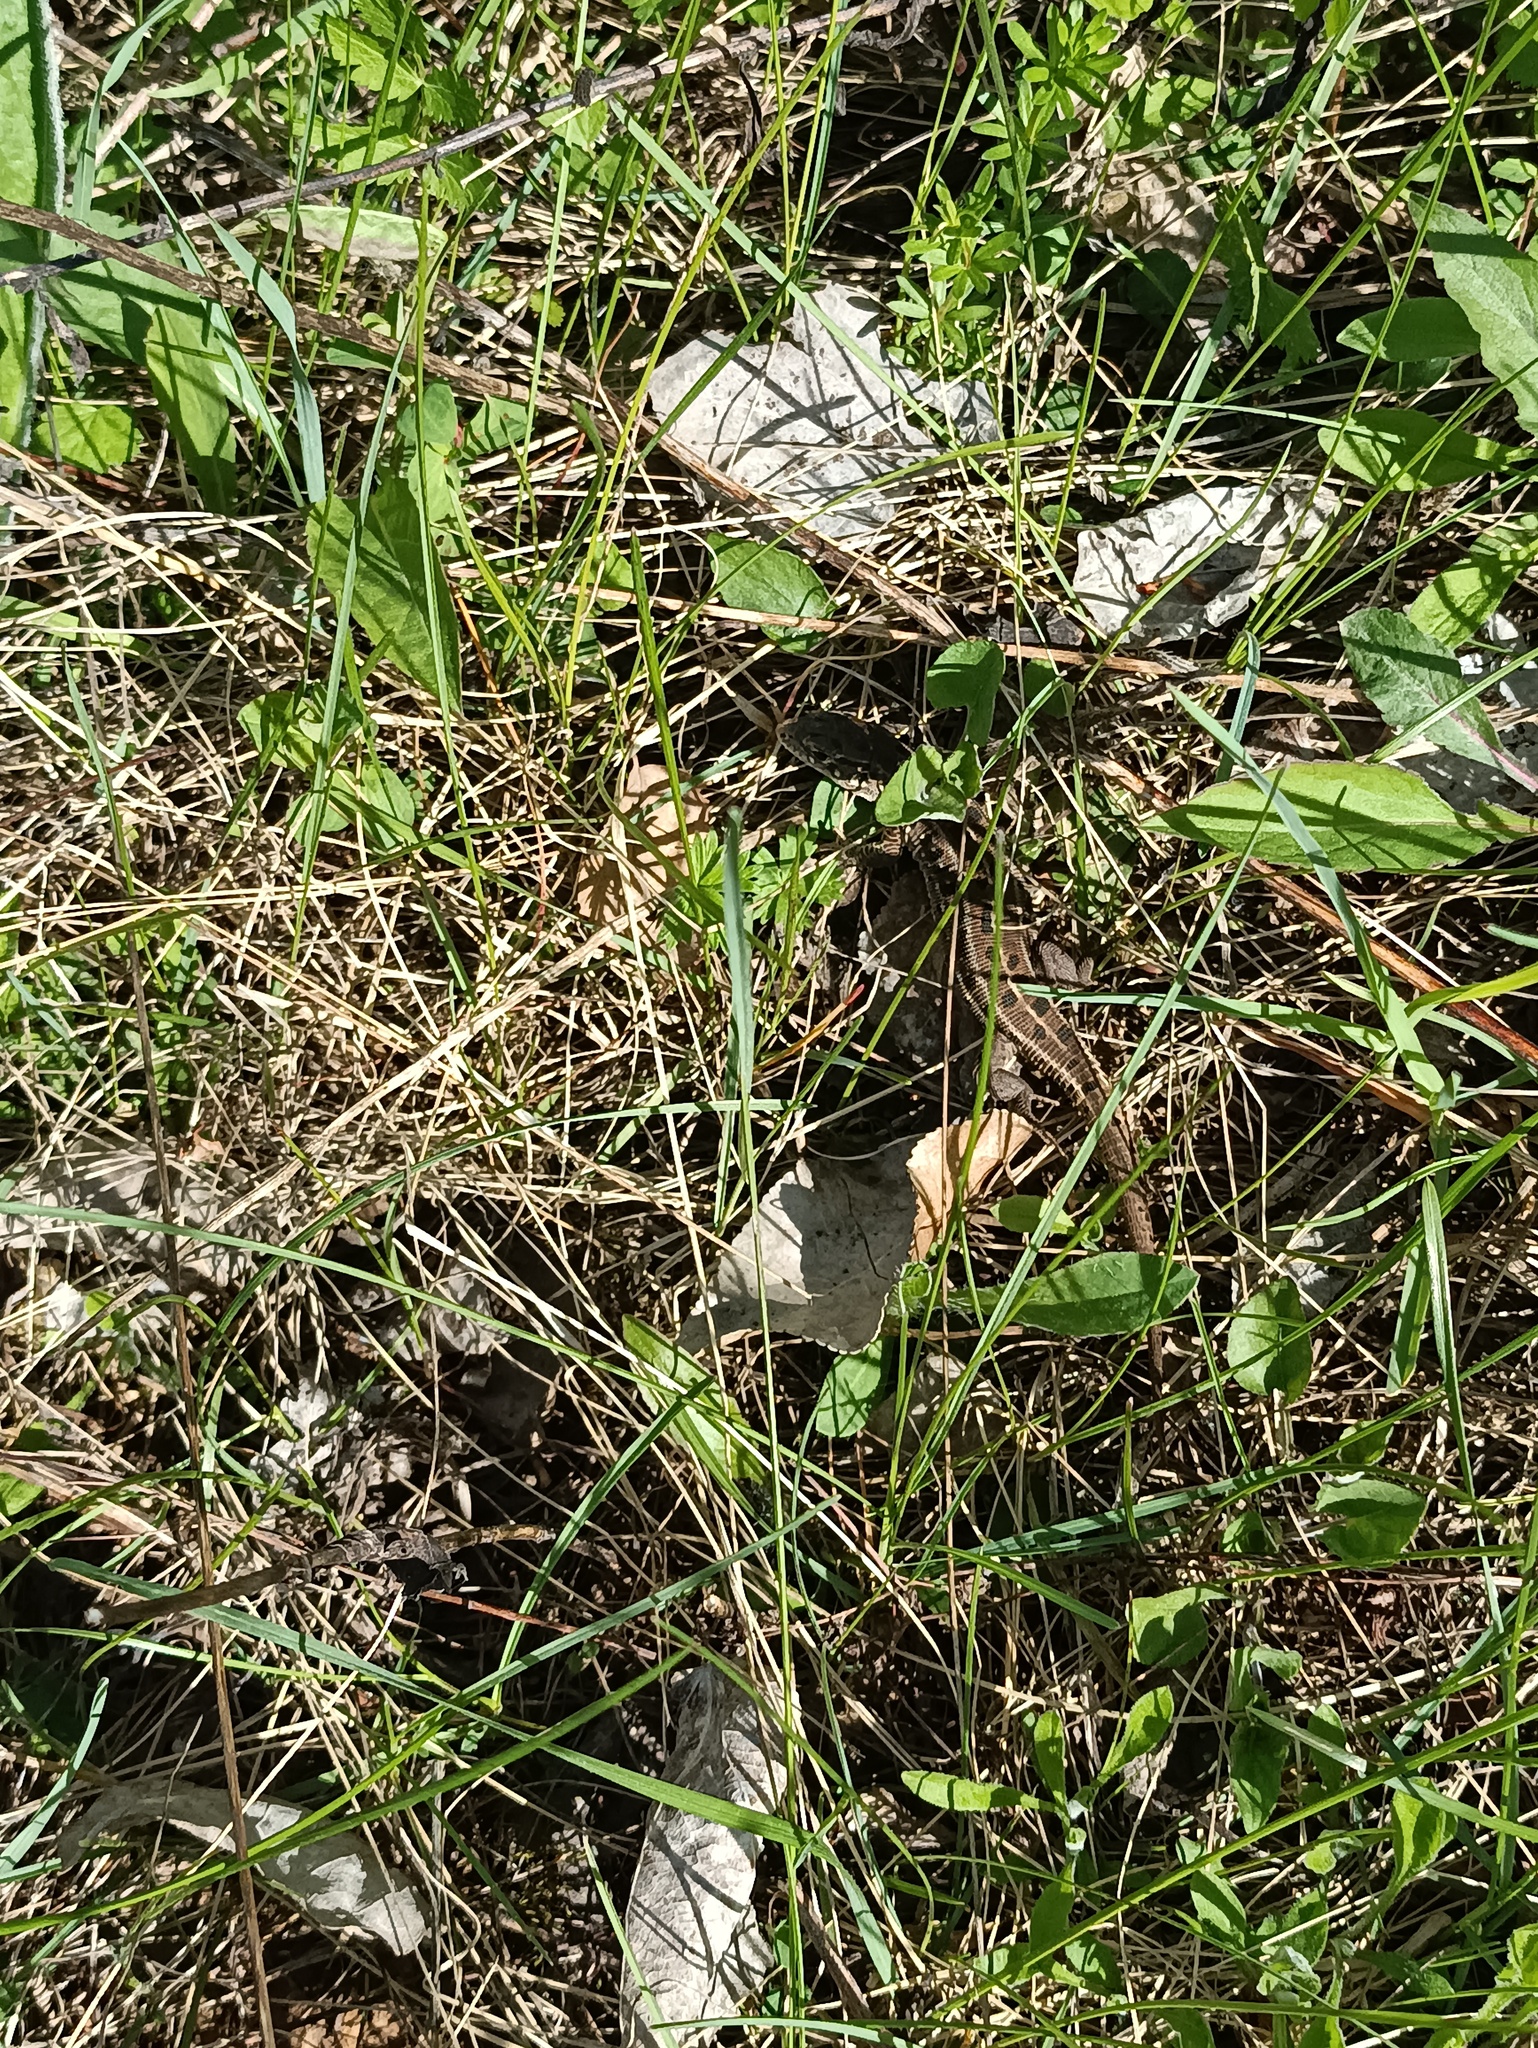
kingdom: Animalia
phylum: Chordata
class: Squamata
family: Lacertidae
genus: Lacerta
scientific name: Lacerta agilis
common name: Sand lizard
